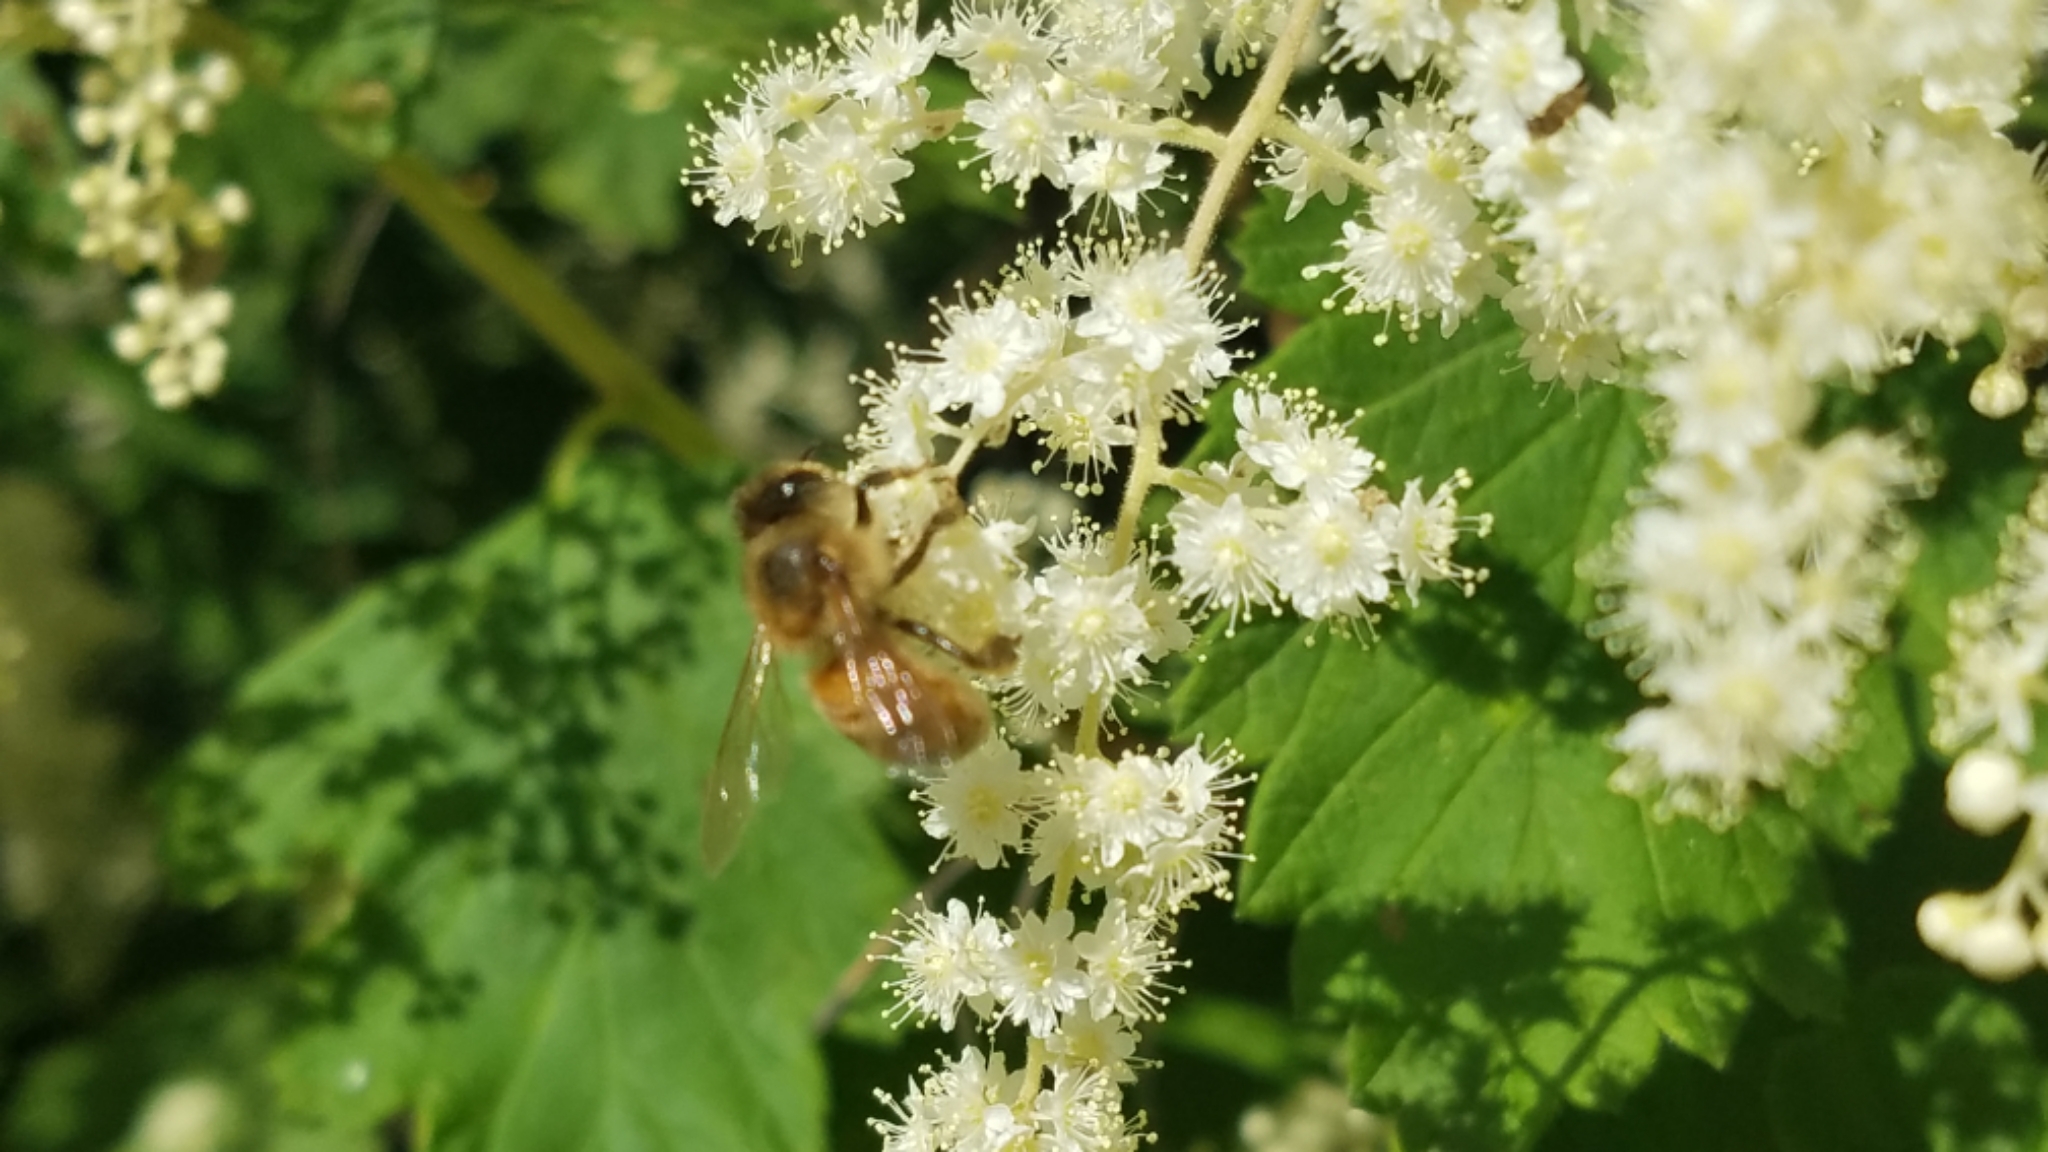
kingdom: Animalia
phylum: Arthropoda
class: Insecta
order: Hymenoptera
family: Apidae
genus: Apis
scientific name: Apis mellifera
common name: Honey bee
